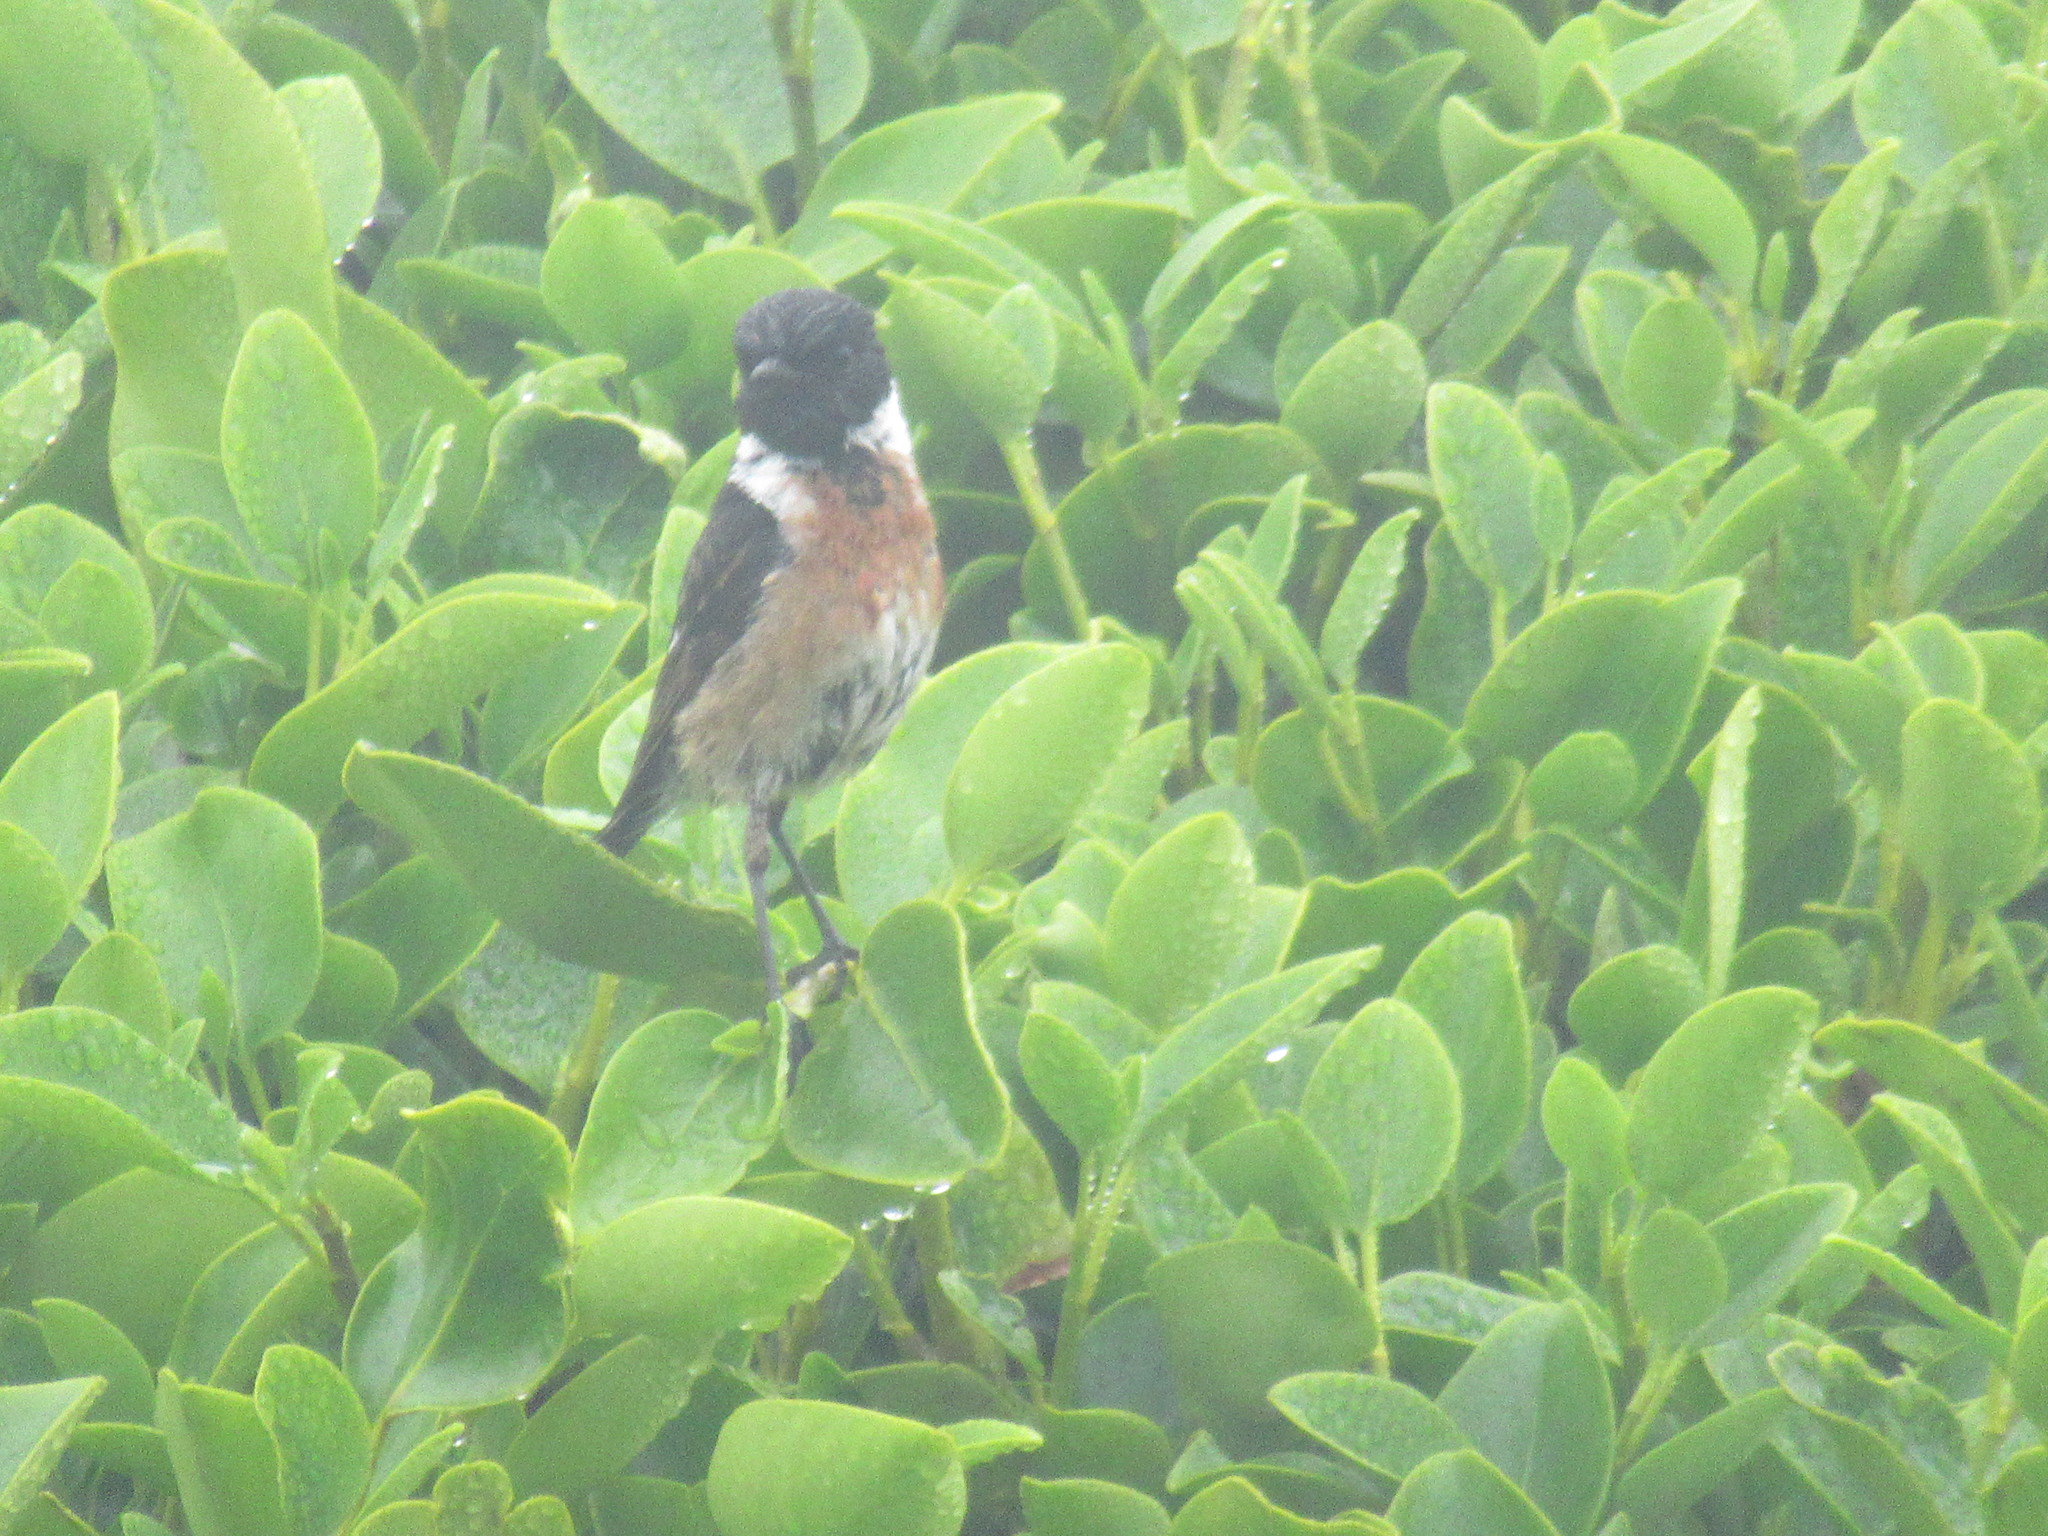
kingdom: Animalia
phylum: Chordata
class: Aves
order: Passeriformes
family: Muscicapidae
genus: Saxicola
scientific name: Saxicola rubicola
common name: European stonechat
